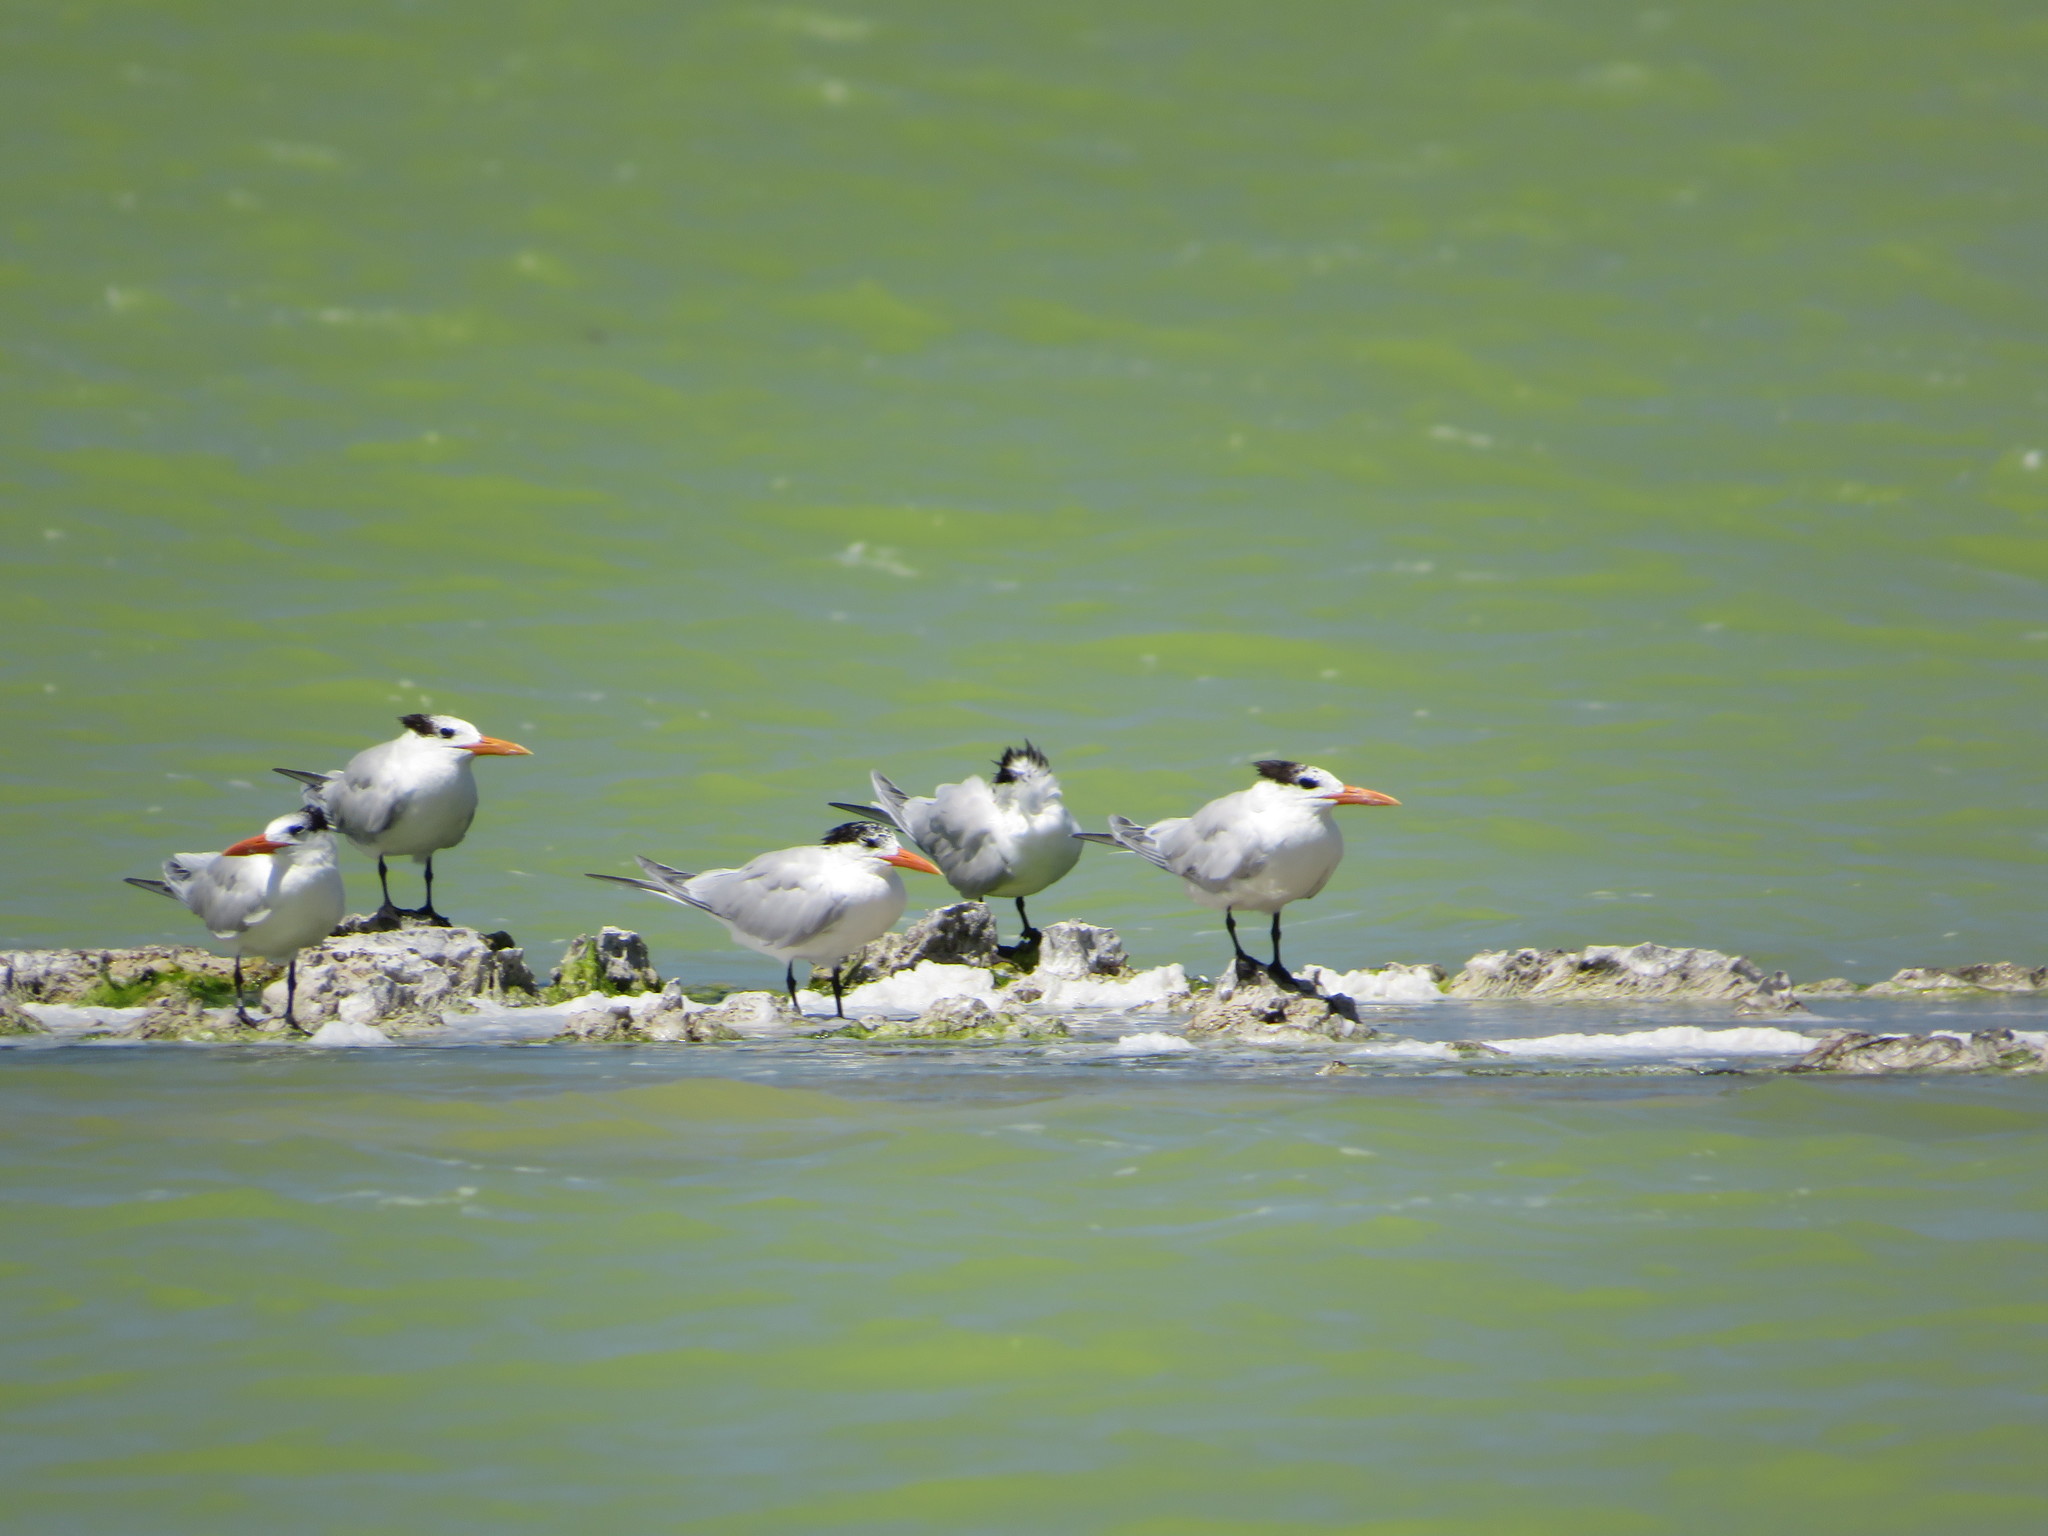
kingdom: Animalia
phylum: Chordata
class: Aves
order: Charadriiformes
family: Laridae
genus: Thalasseus
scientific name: Thalasseus maximus
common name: Royal tern
